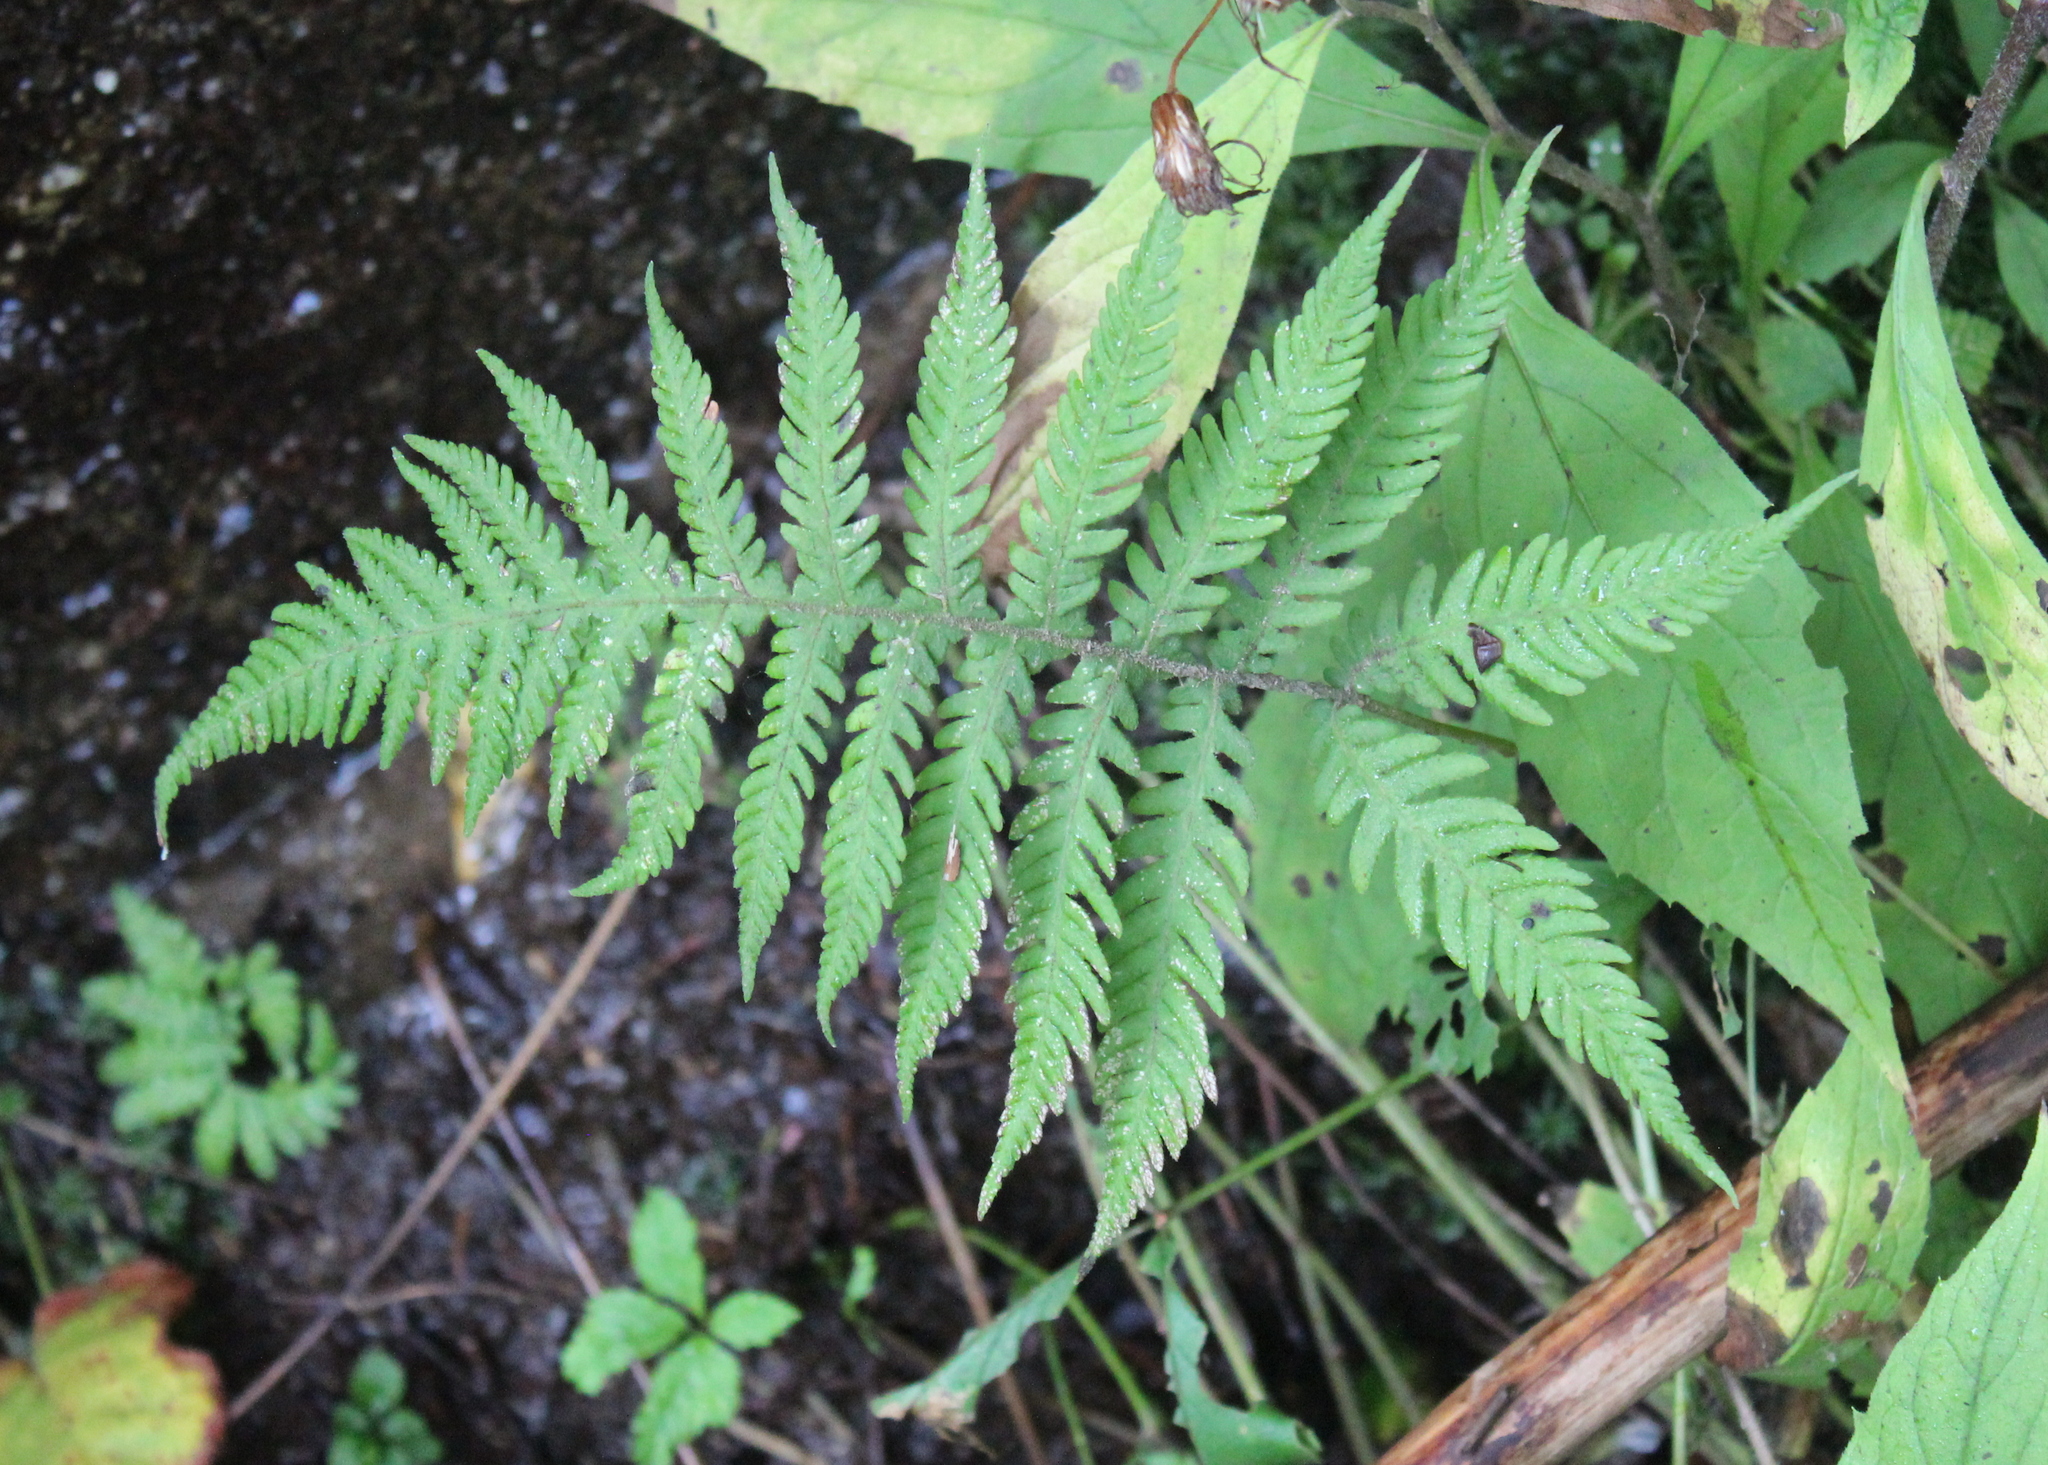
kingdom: Plantae
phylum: Tracheophyta
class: Polypodiopsida
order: Polypodiales
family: Thelypteridaceae
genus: Phegopteris
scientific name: Phegopteris connectilis
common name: Beech fern
